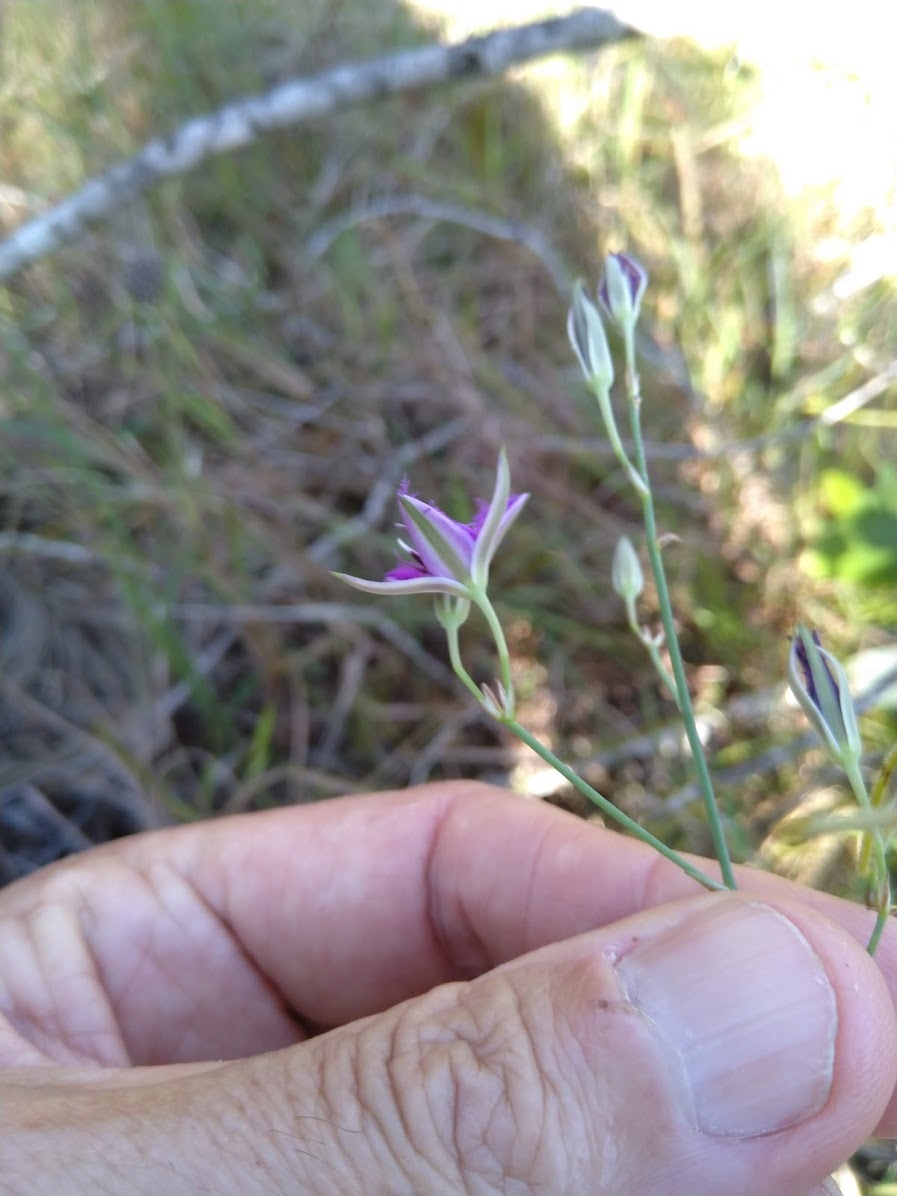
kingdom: Plantae
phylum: Tracheophyta
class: Liliopsida
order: Asparagales
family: Asparagaceae
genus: Thysanotus
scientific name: Thysanotus tuberosus
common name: Common fringed-lily
